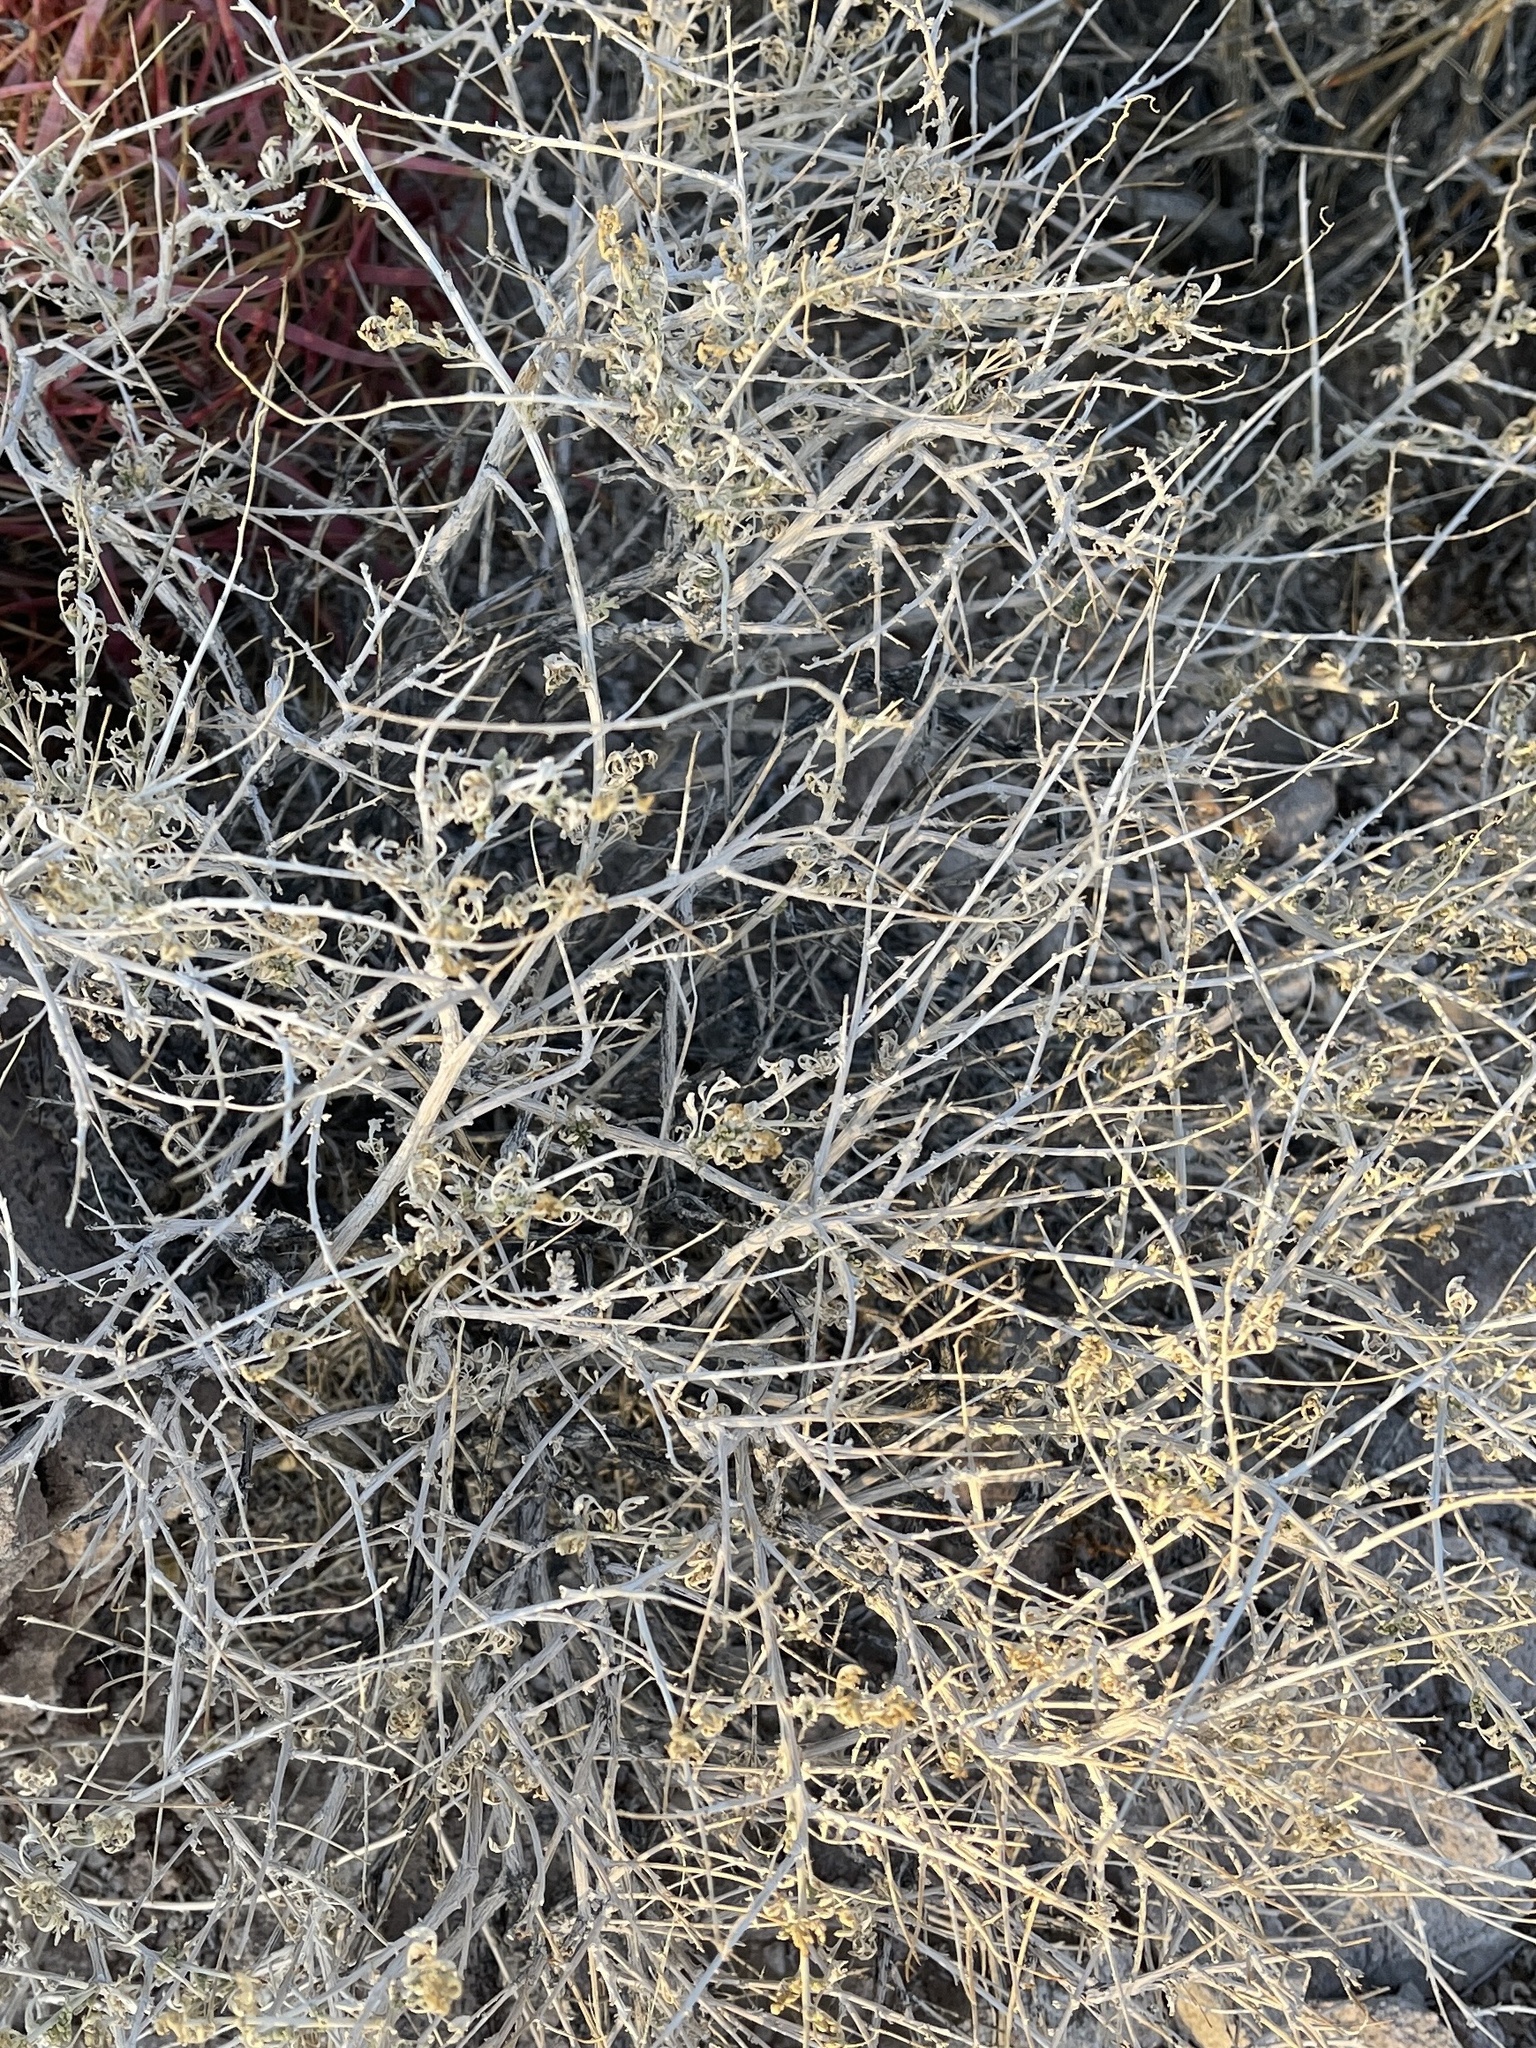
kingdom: Plantae
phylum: Tracheophyta
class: Magnoliopsida
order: Asterales
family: Asteraceae
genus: Ambrosia
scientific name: Ambrosia dumosa
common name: Bur-sage
